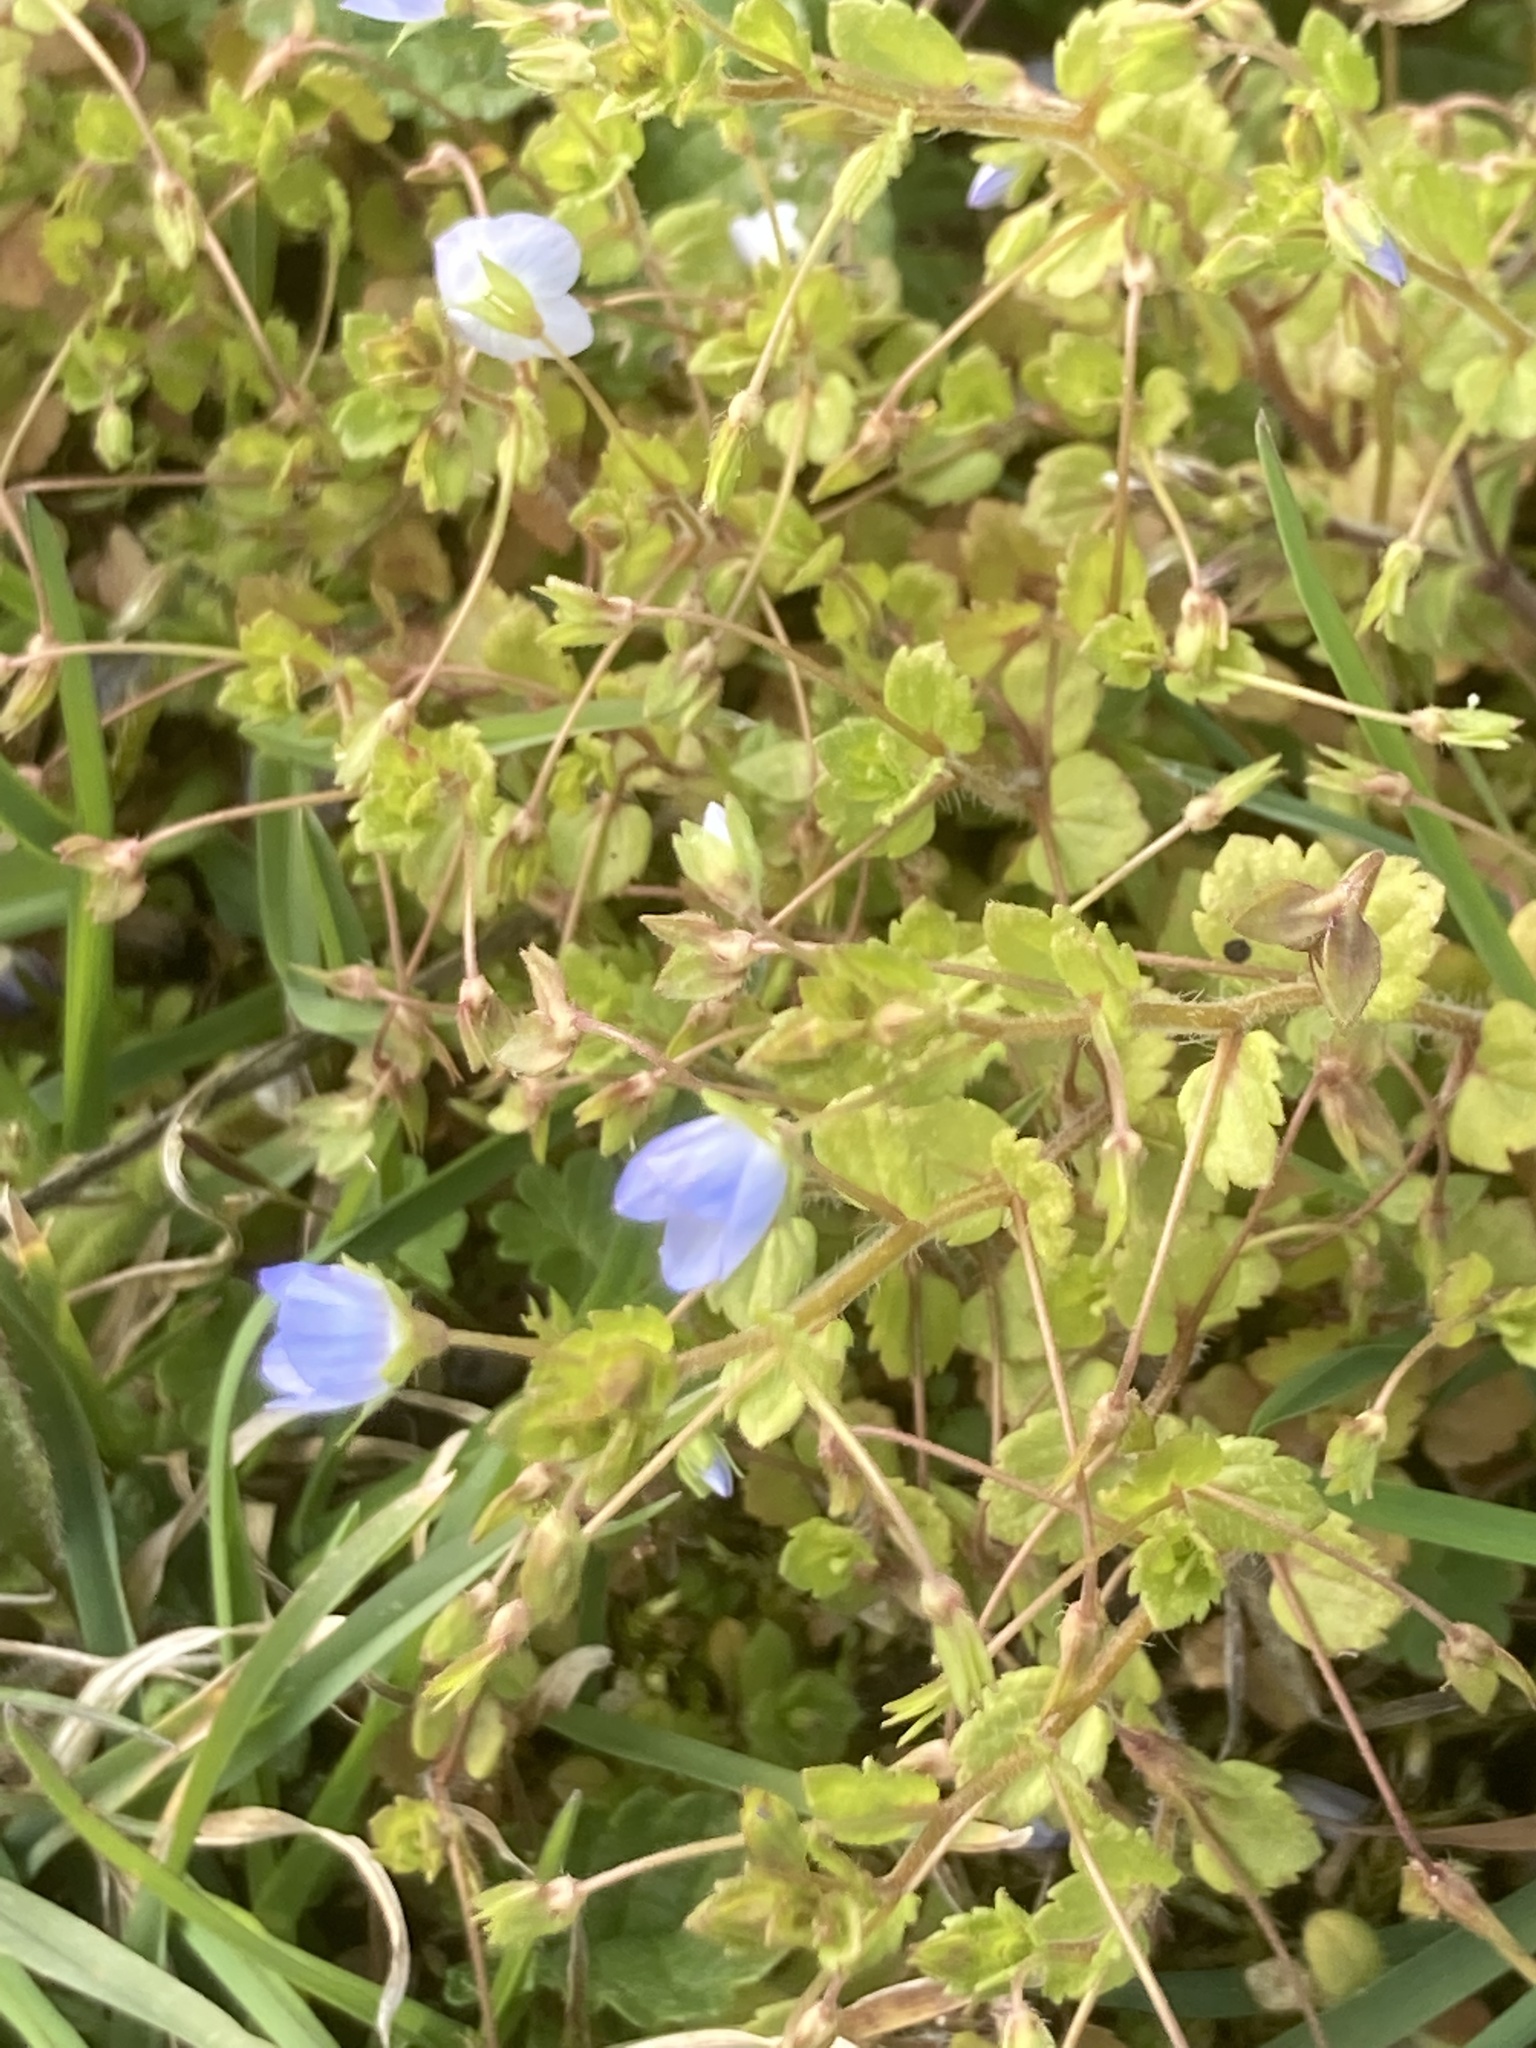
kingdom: Plantae
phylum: Tracheophyta
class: Magnoliopsida
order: Lamiales
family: Plantaginaceae
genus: Veronica
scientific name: Veronica persica
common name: Common field-speedwell
